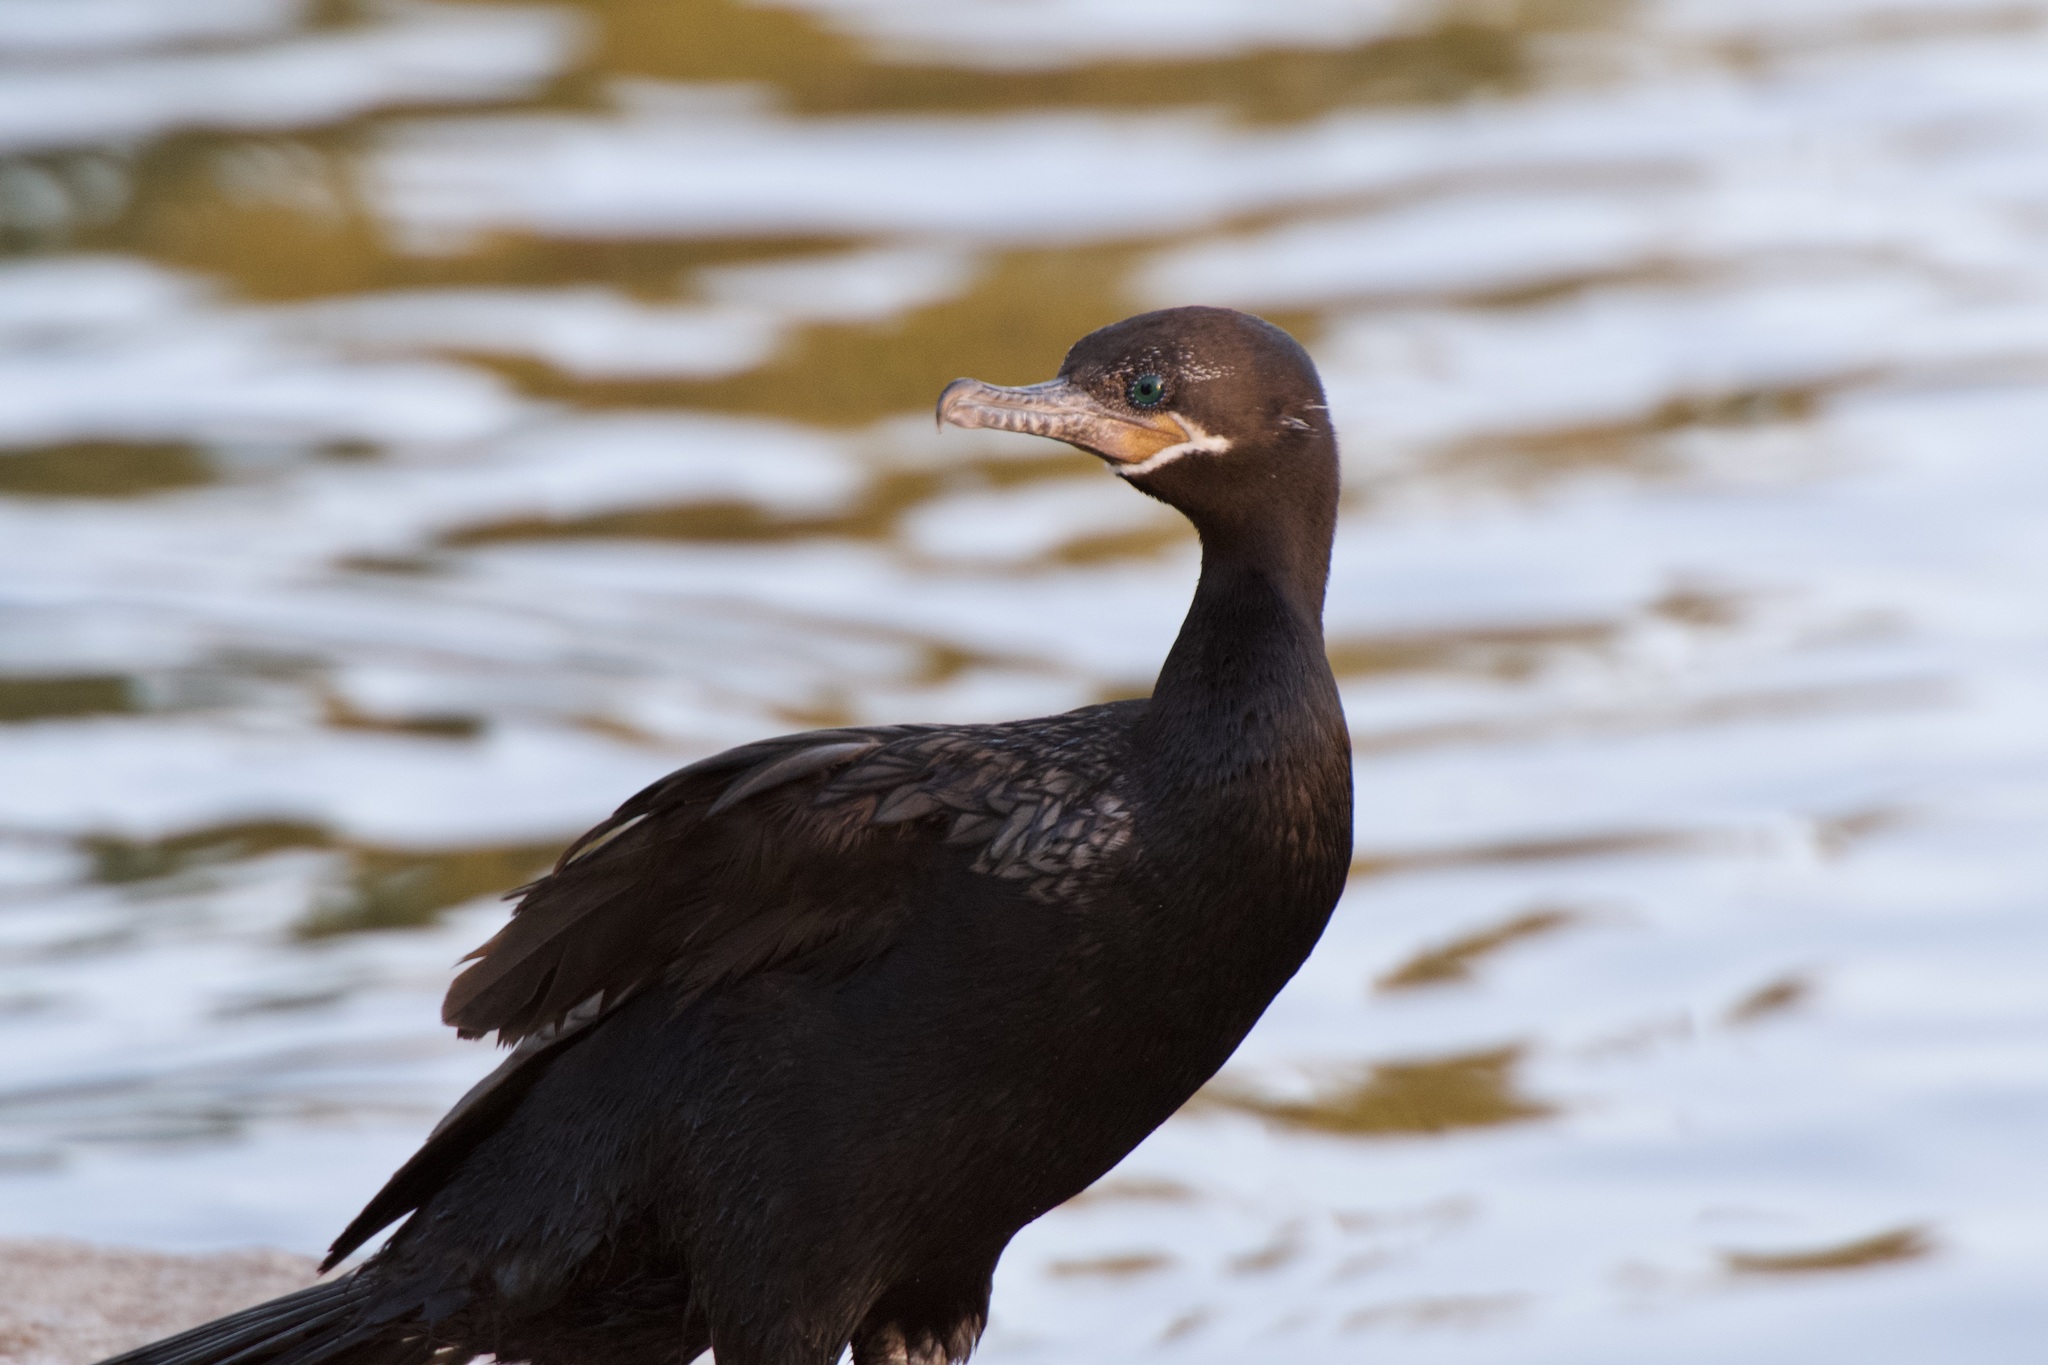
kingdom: Animalia
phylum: Chordata
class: Aves
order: Suliformes
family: Phalacrocoracidae
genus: Phalacrocorax
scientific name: Phalacrocorax brasilianus
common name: Neotropic cormorant
